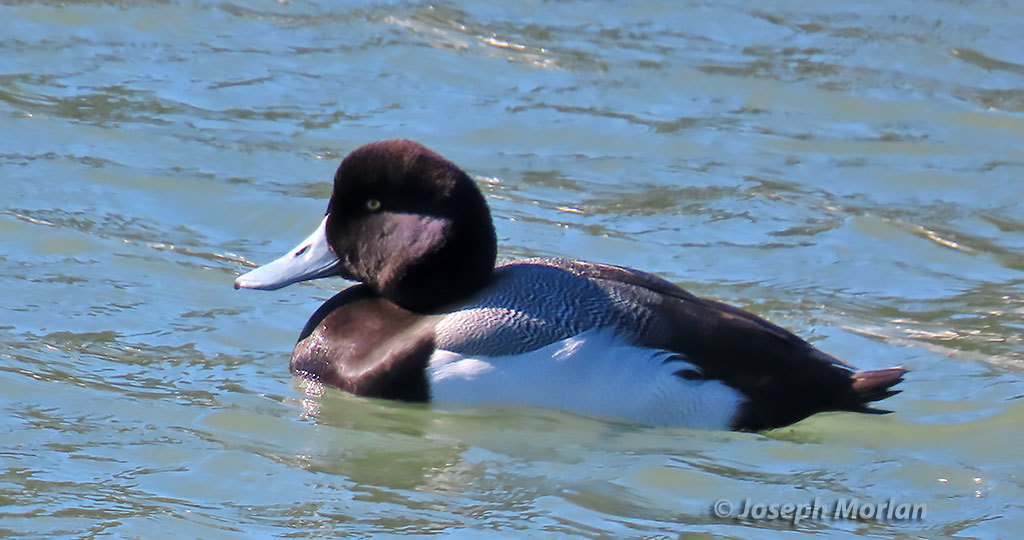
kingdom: Animalia
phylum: Chordata
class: Aves
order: Anseriformes
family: Anatidae
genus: Aythya
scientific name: Aythya marila
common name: Greater scaup
